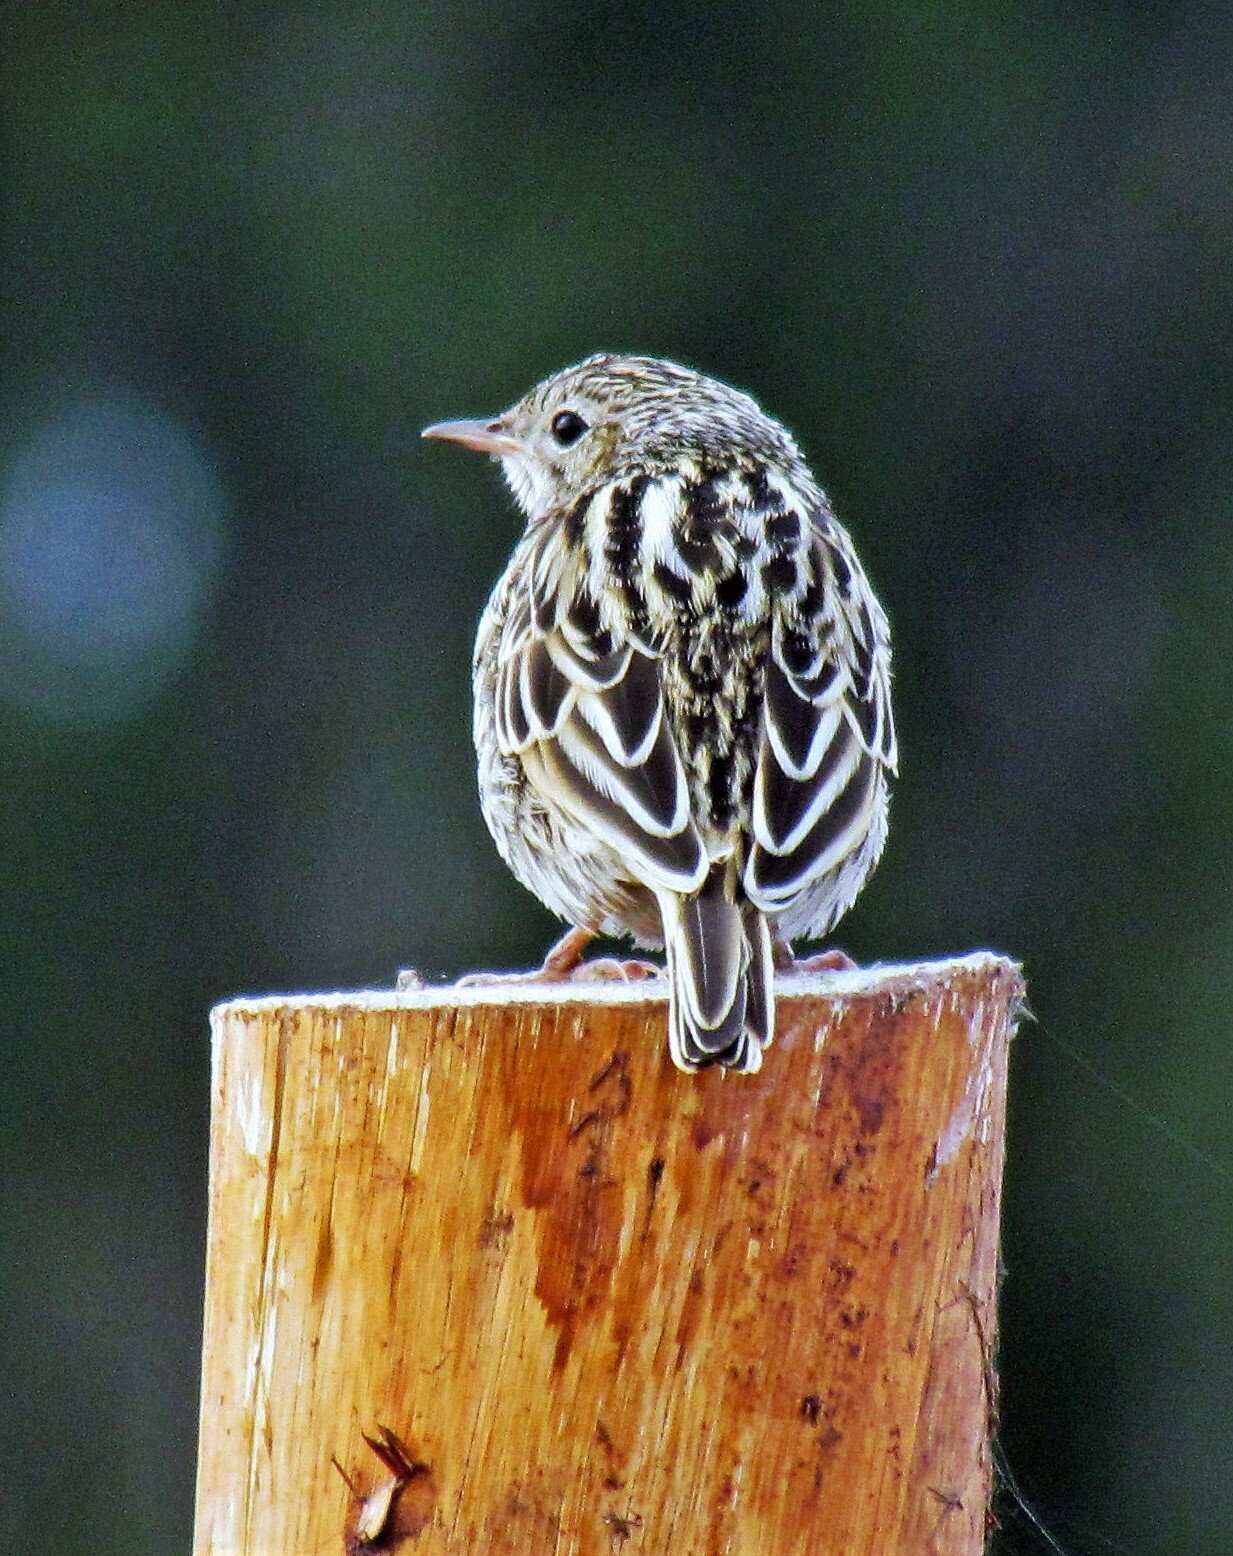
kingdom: Animalia
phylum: Chordata
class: Aves
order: Passeriformes
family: Motacillidae
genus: Anthus
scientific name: Anthus correndera
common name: Correndera pipit
